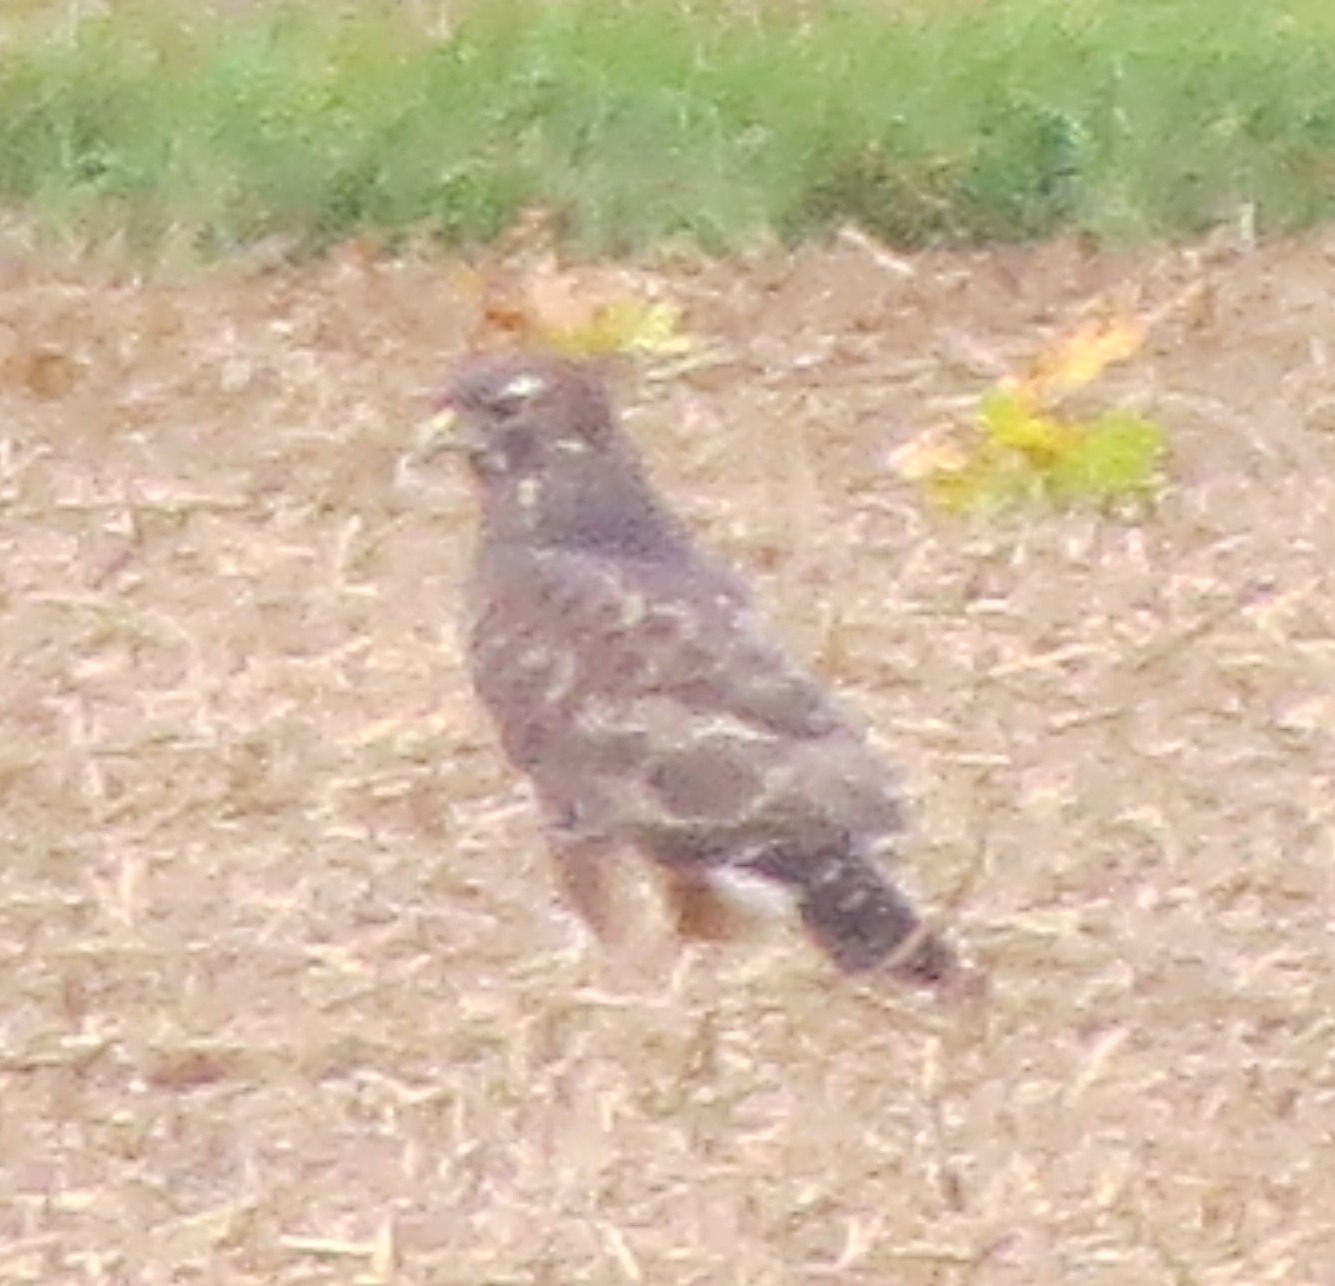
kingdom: Animalia
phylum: Chordata
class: Aves
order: Accipitriformes
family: Accipitridae
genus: Buteo
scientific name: Buteo buteo
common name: Common buzzard
